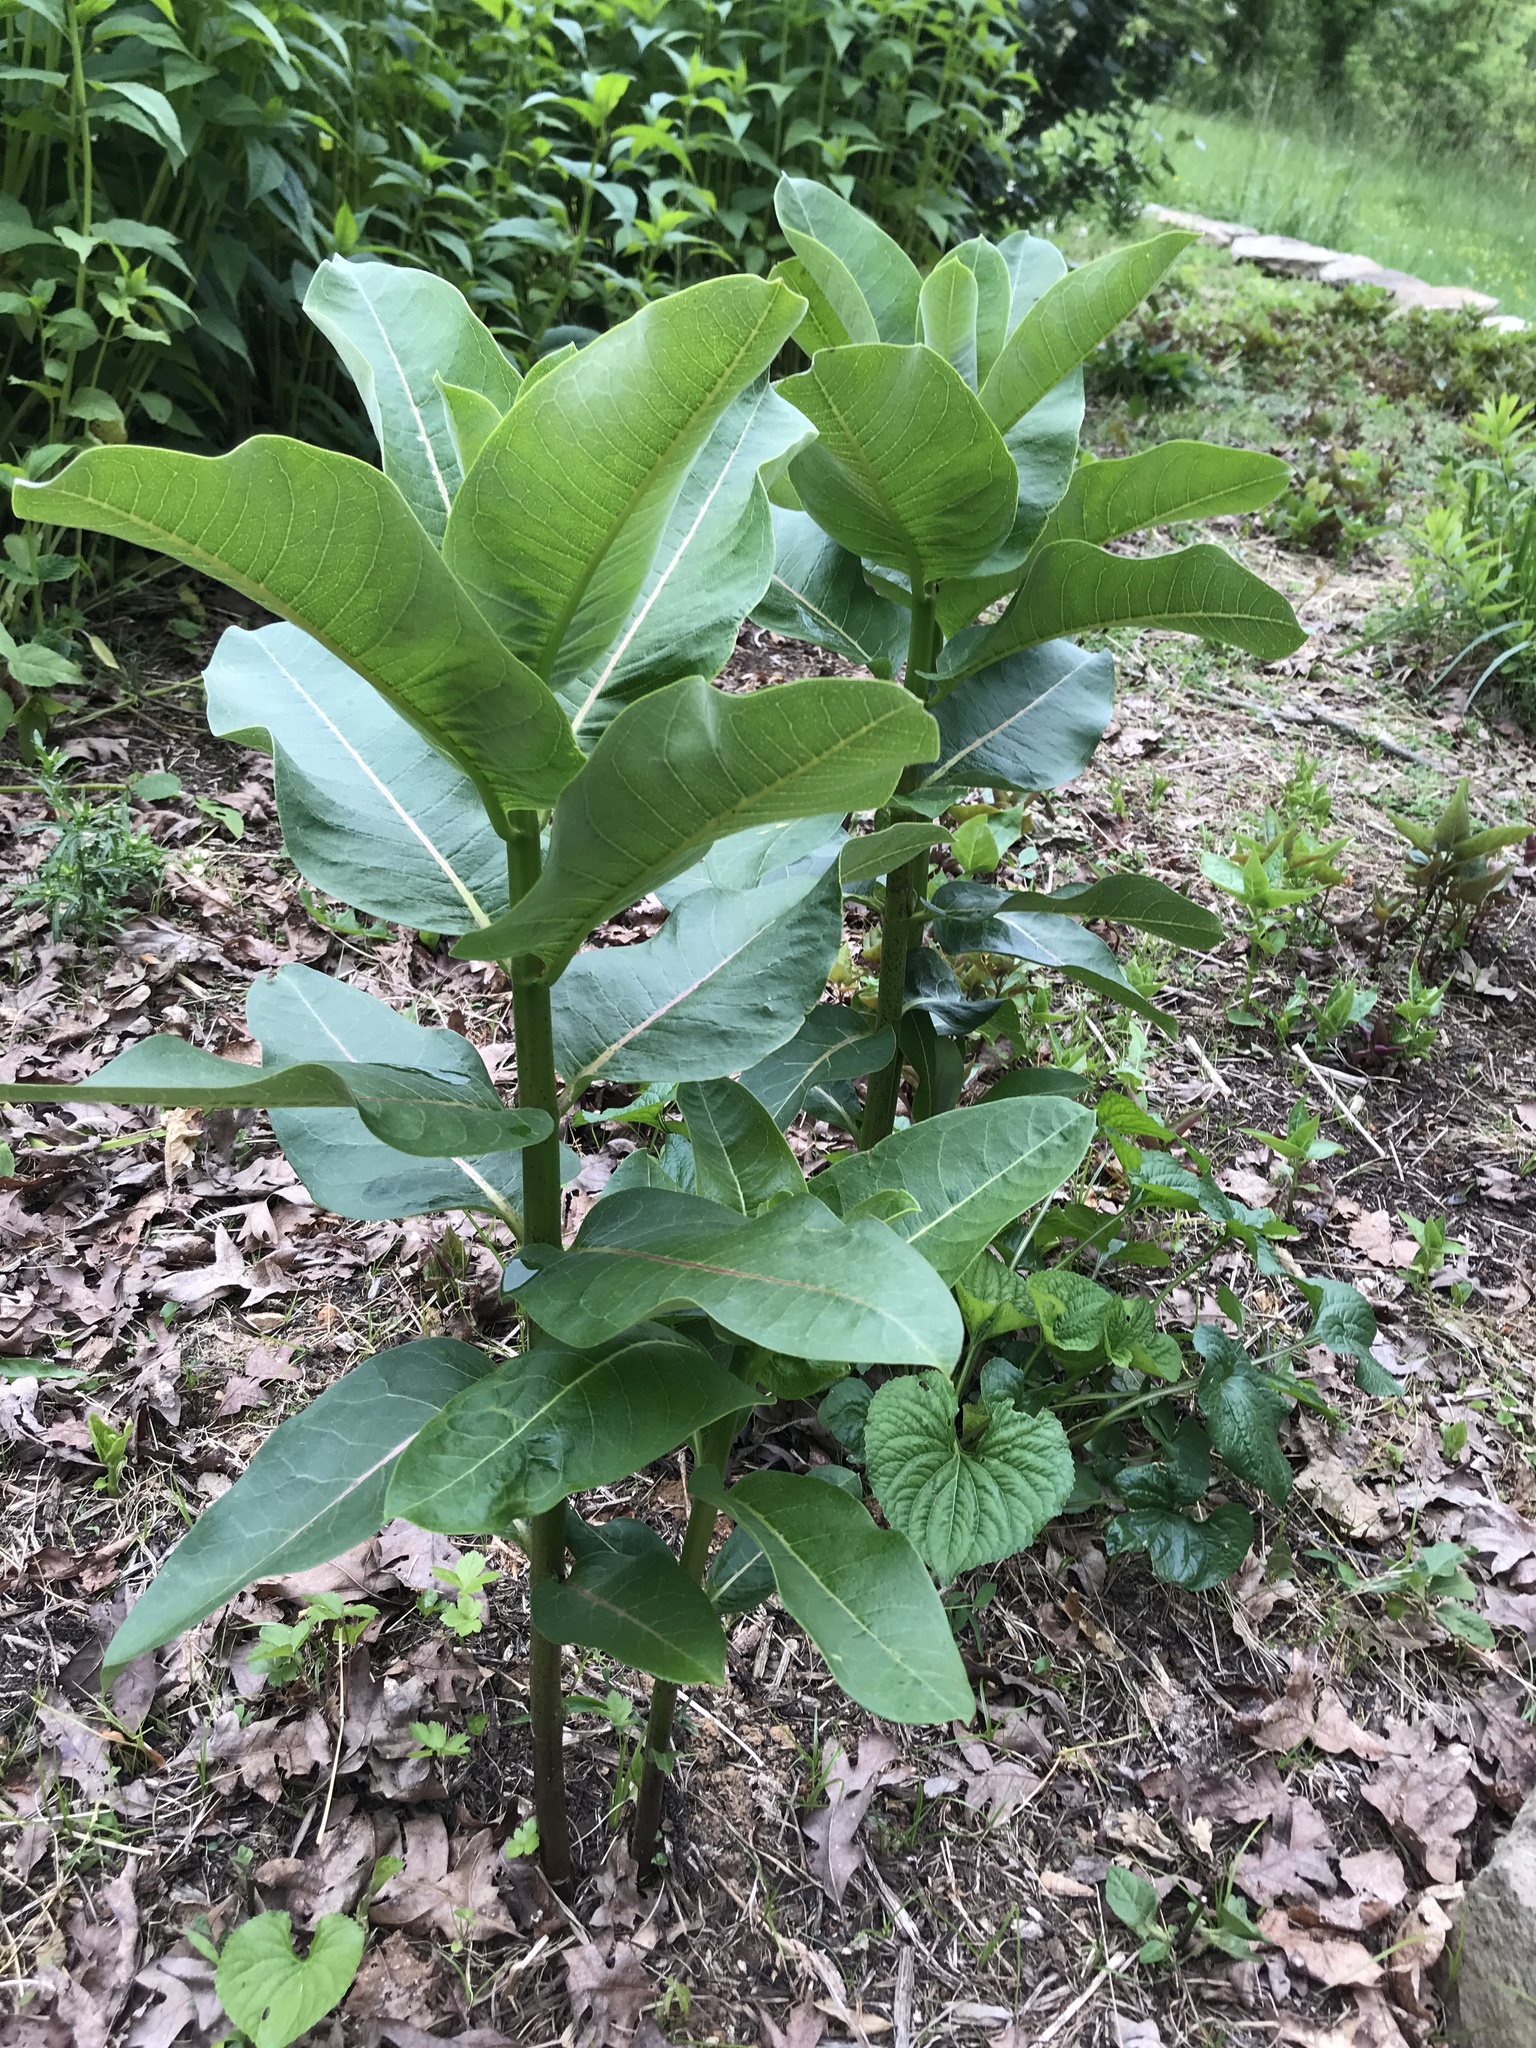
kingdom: Plantae
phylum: Tracheophyta
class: Magnoliopsida
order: Gentianales
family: Apocynaceae
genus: Asclepias
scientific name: Asclepias syriaca
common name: Common milkweed
